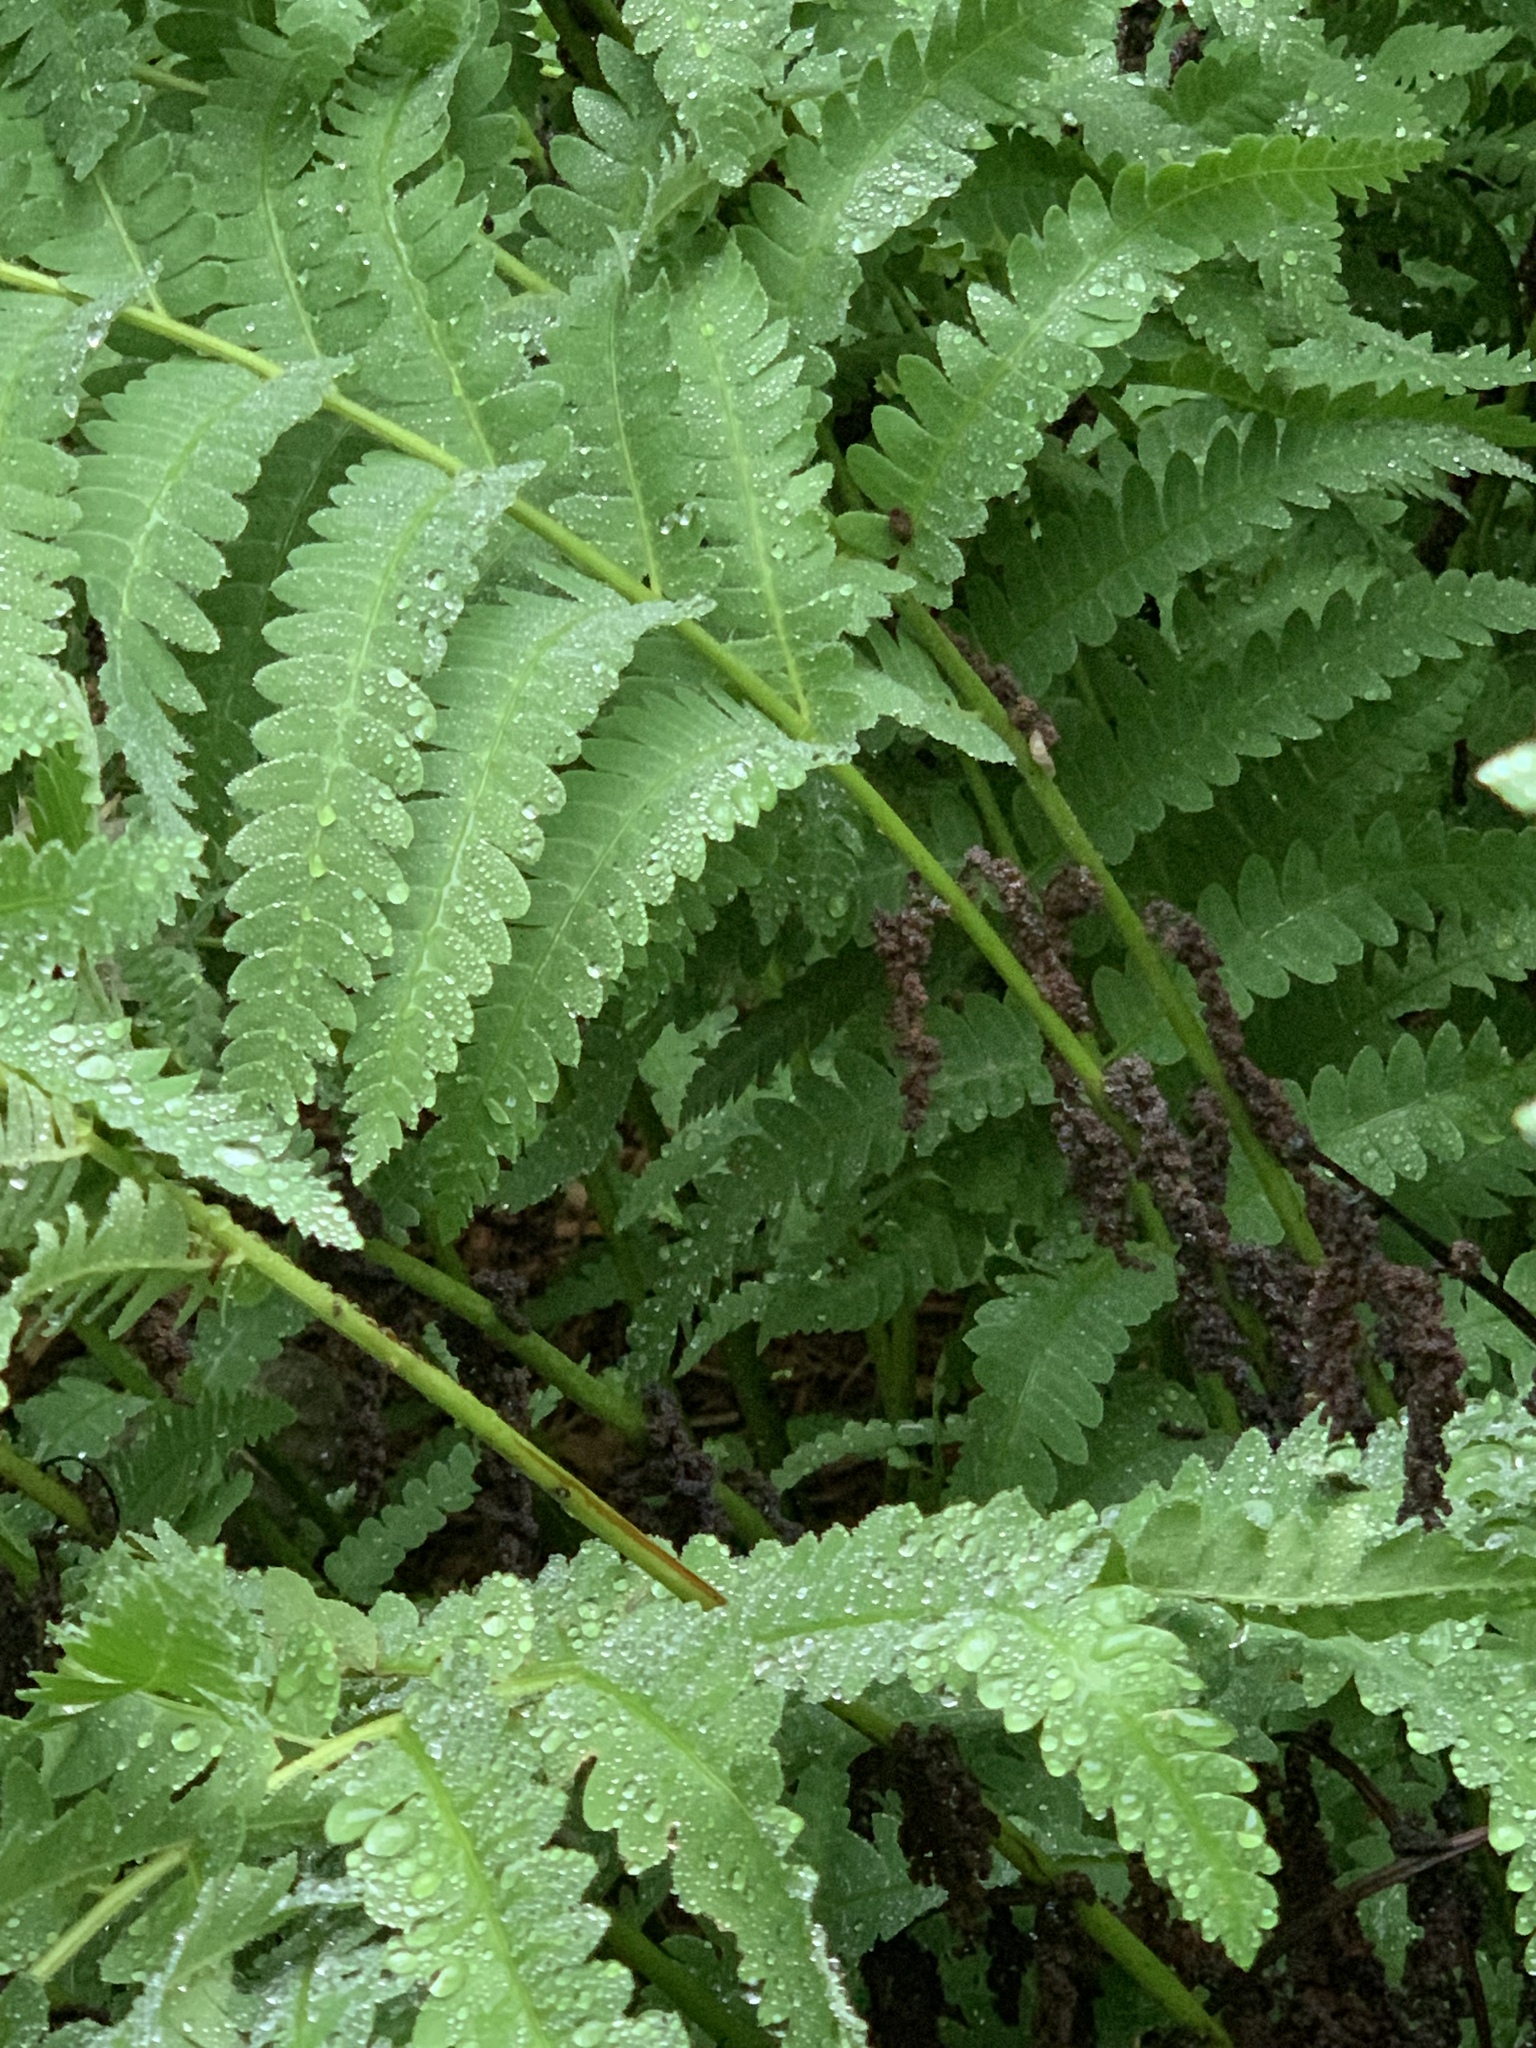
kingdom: Plantae
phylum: Tracheophyta
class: Polypodiopsida
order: Osmundales
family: Osmundaceae
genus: Claytosmunda
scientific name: Claytosmunda claytoniana
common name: Clayton's fern
